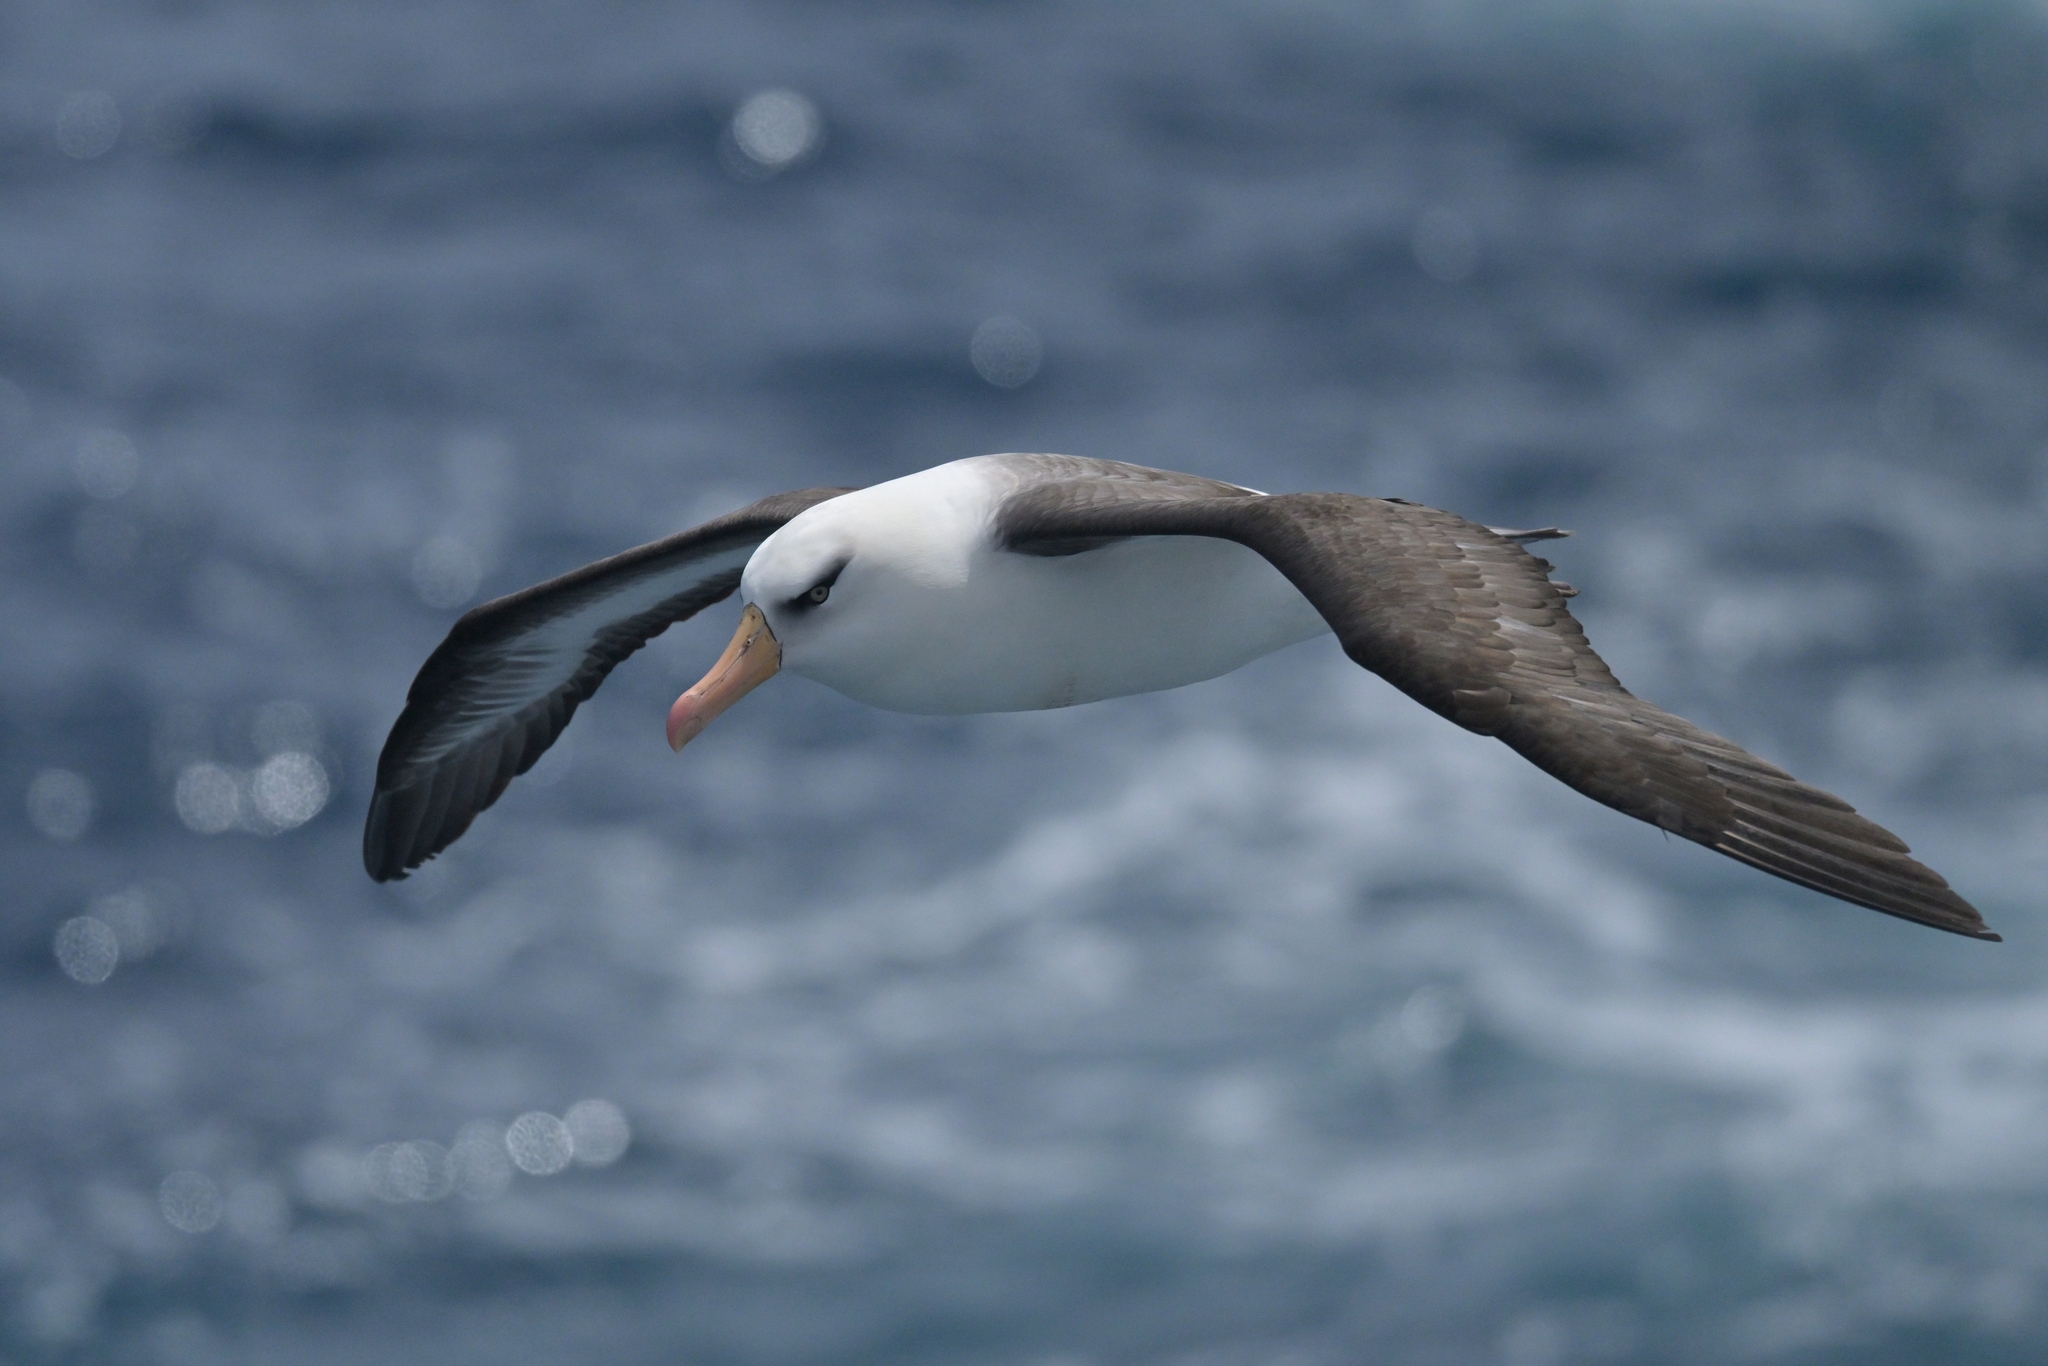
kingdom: Animalia
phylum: Chordata
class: Aves
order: Procellariiformes
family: Diomedeidae
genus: Thalassarche
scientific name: Thalassarche impavida
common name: Campbell albatross
